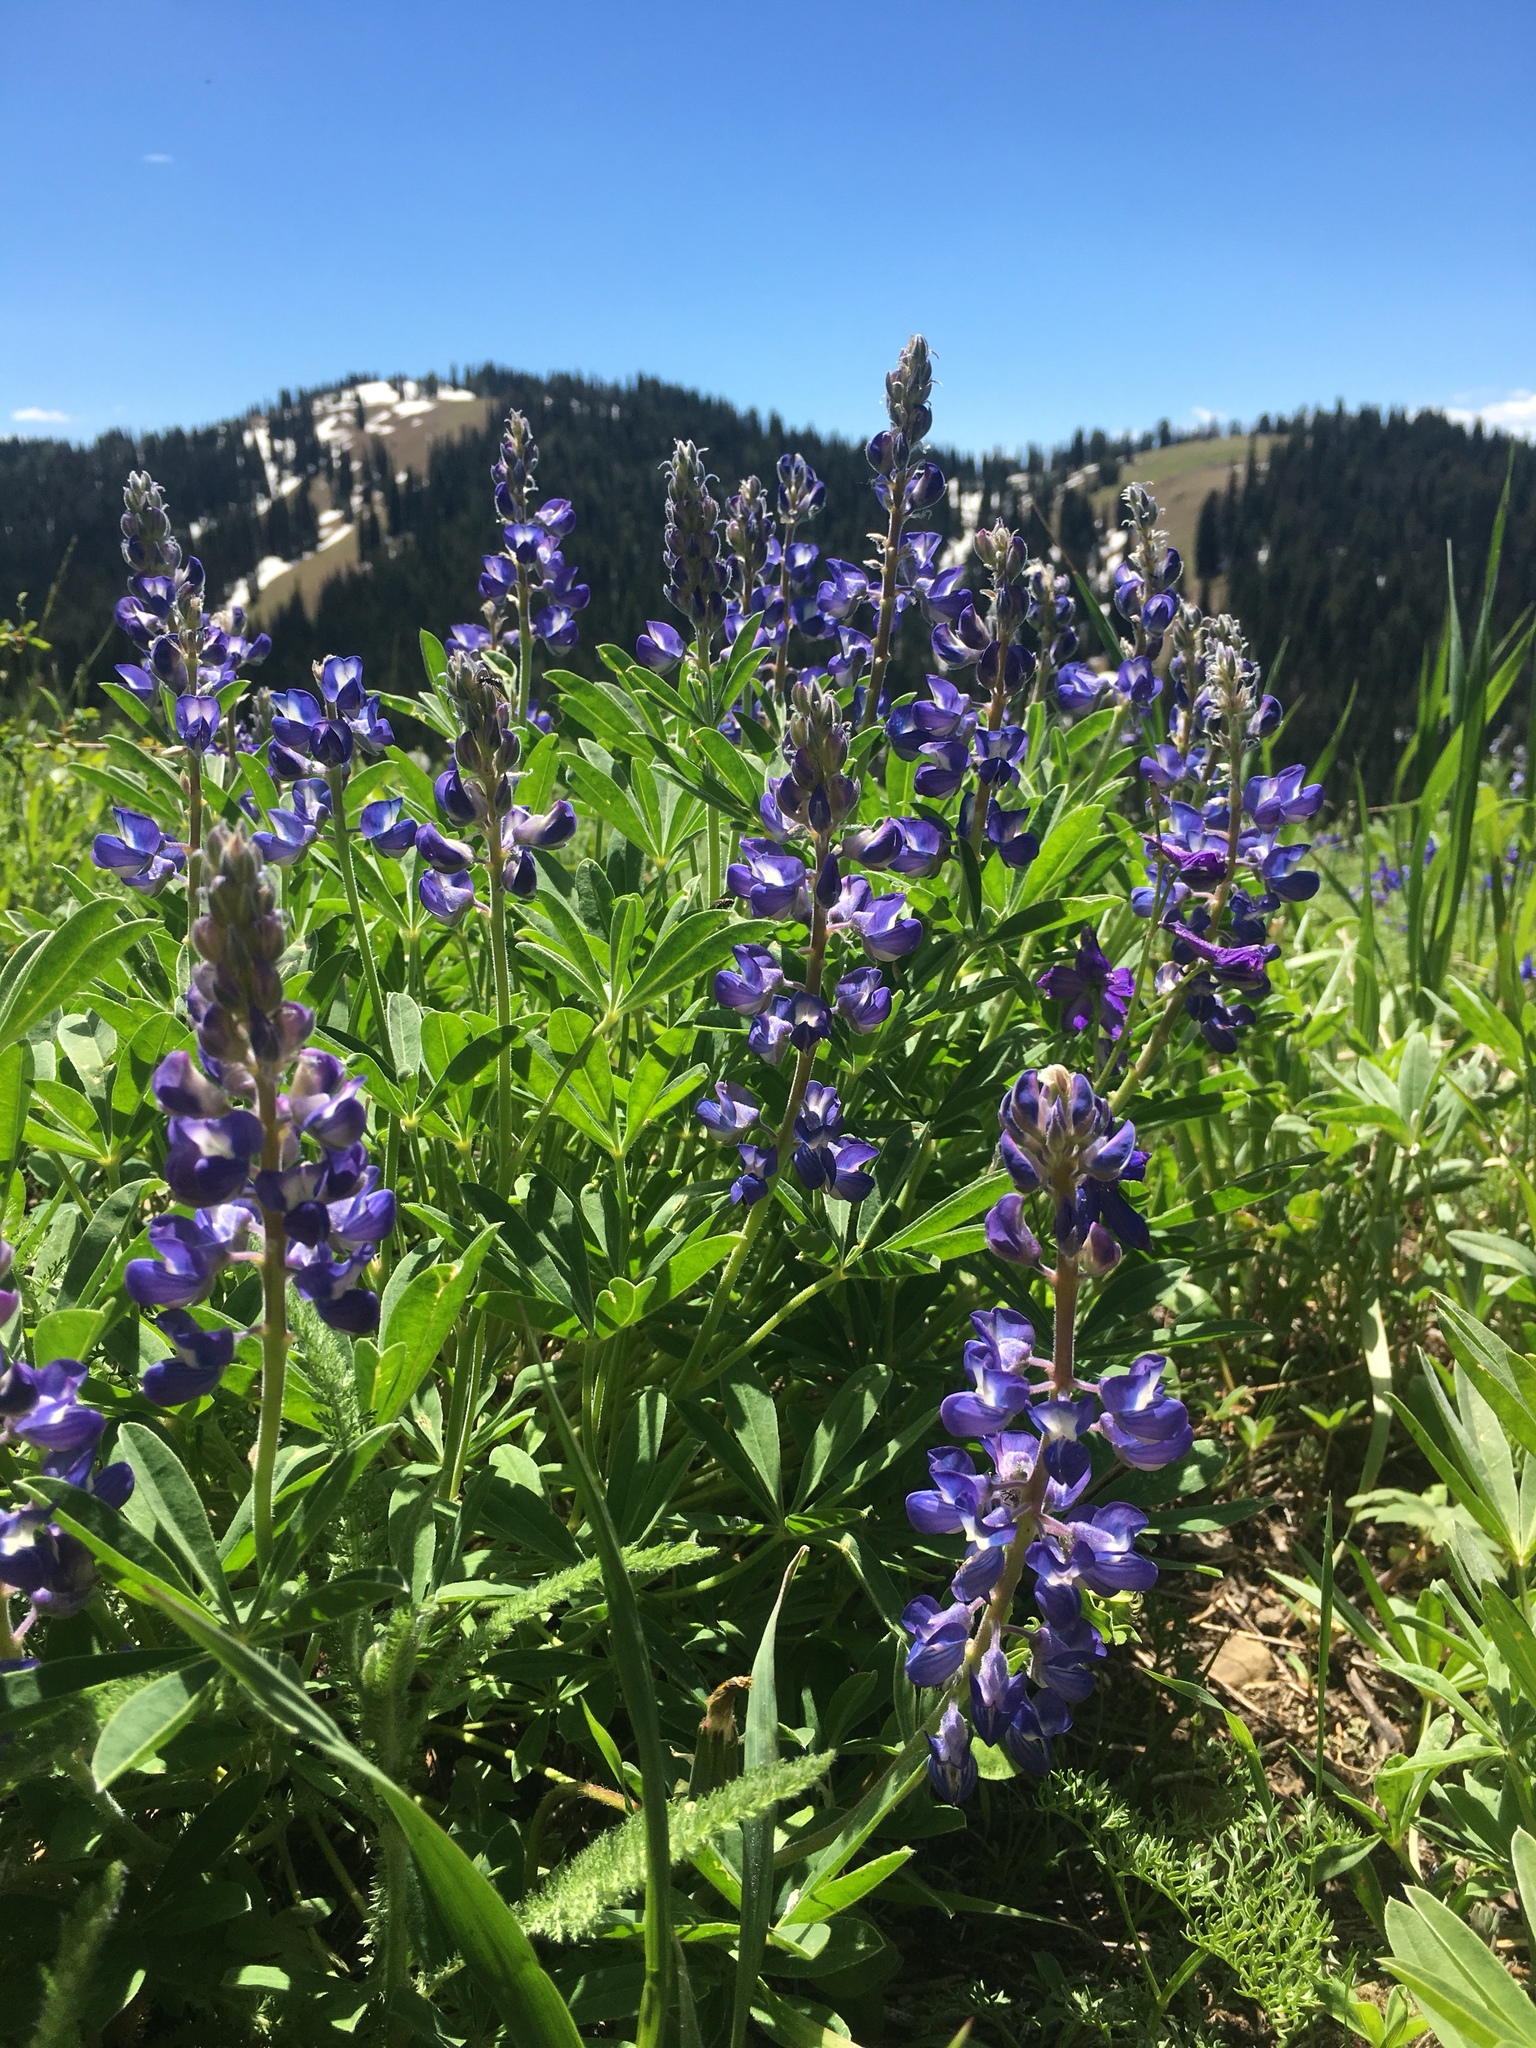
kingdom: Plantae
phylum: Tracheophyta
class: Magnoliopsida
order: Fabales
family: Fabaceae
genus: Lupinus
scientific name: Lupinus
